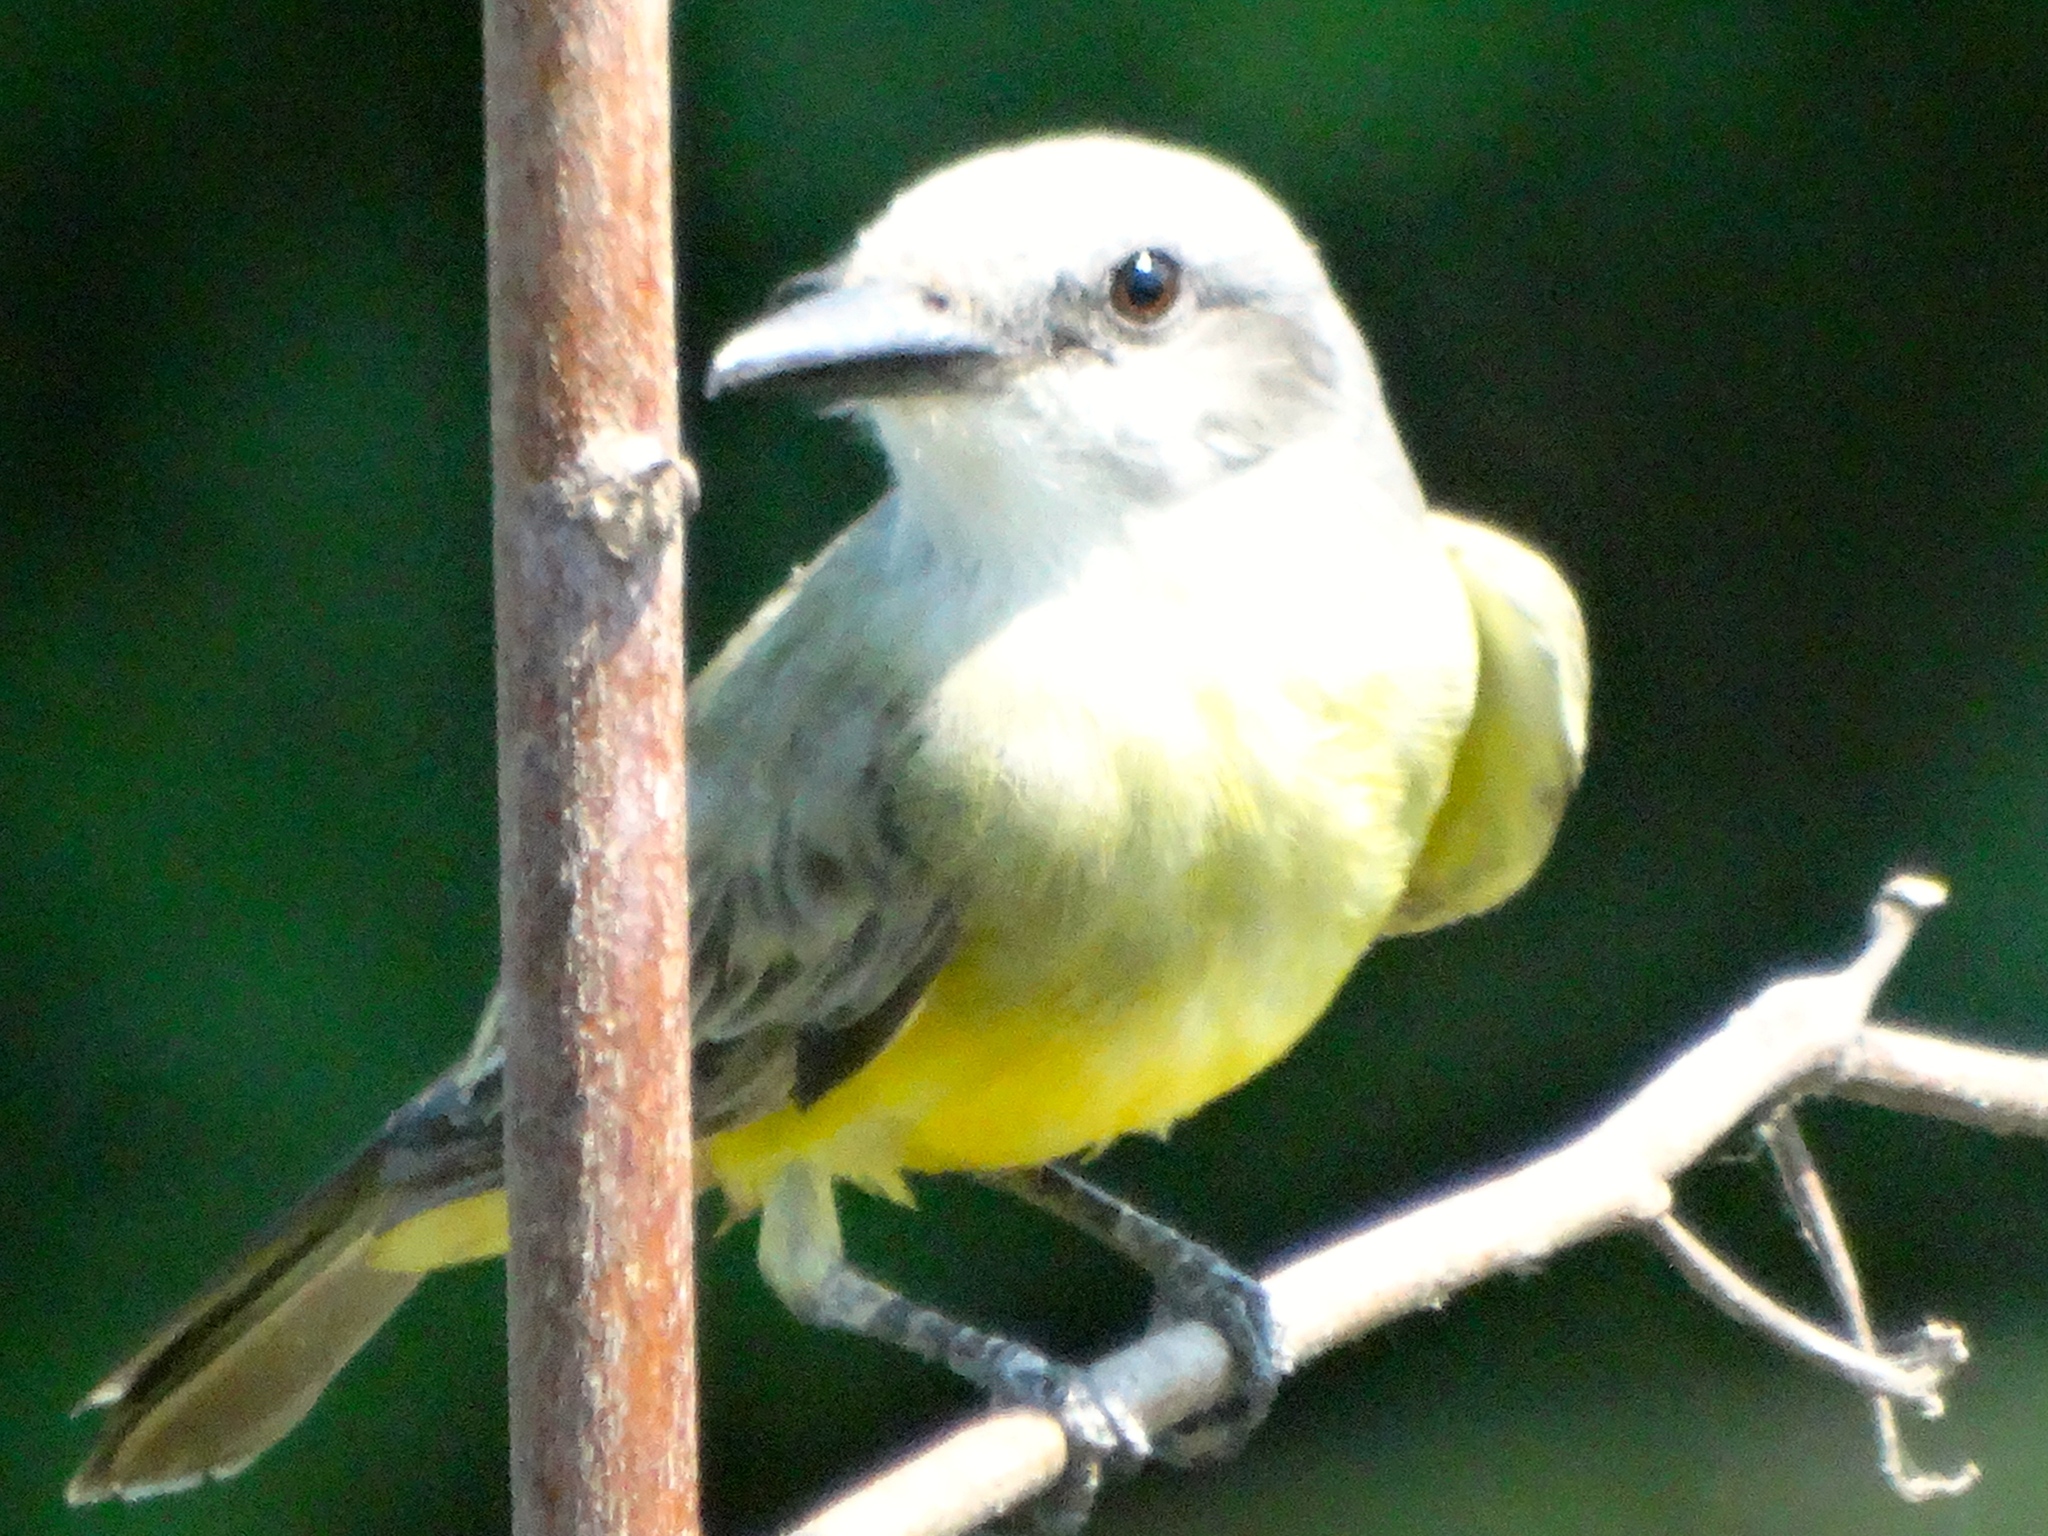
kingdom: Animalia
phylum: Chordata
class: Aves
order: Passeriformes
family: Tyrannidae
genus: Tyrannus
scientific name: Tyrannus melancholicus
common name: Tropical kingbird
